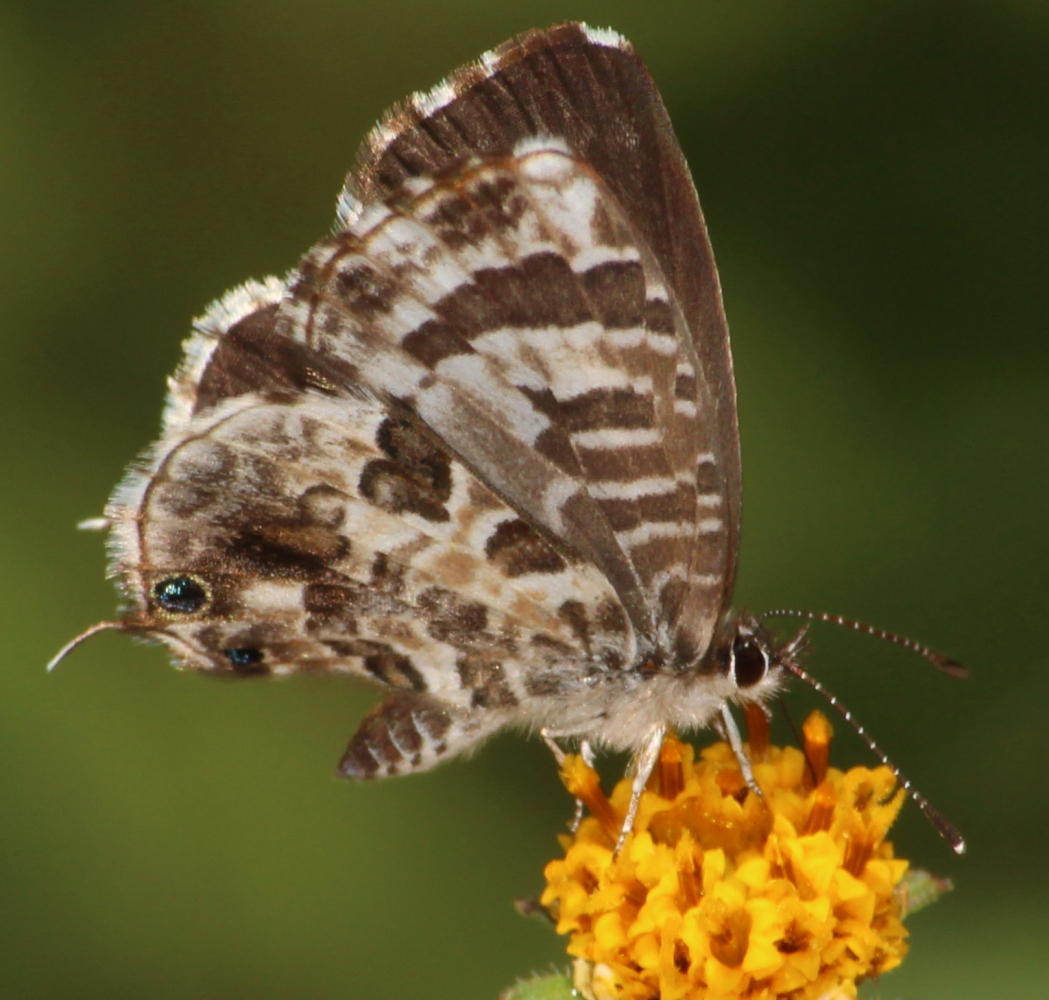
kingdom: Animalia
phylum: Arthropoda
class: Insecta
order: Lepidoptera
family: Lycaenidae
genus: Cacyreus
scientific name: Cacyreus lingeus
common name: Bush bronze
